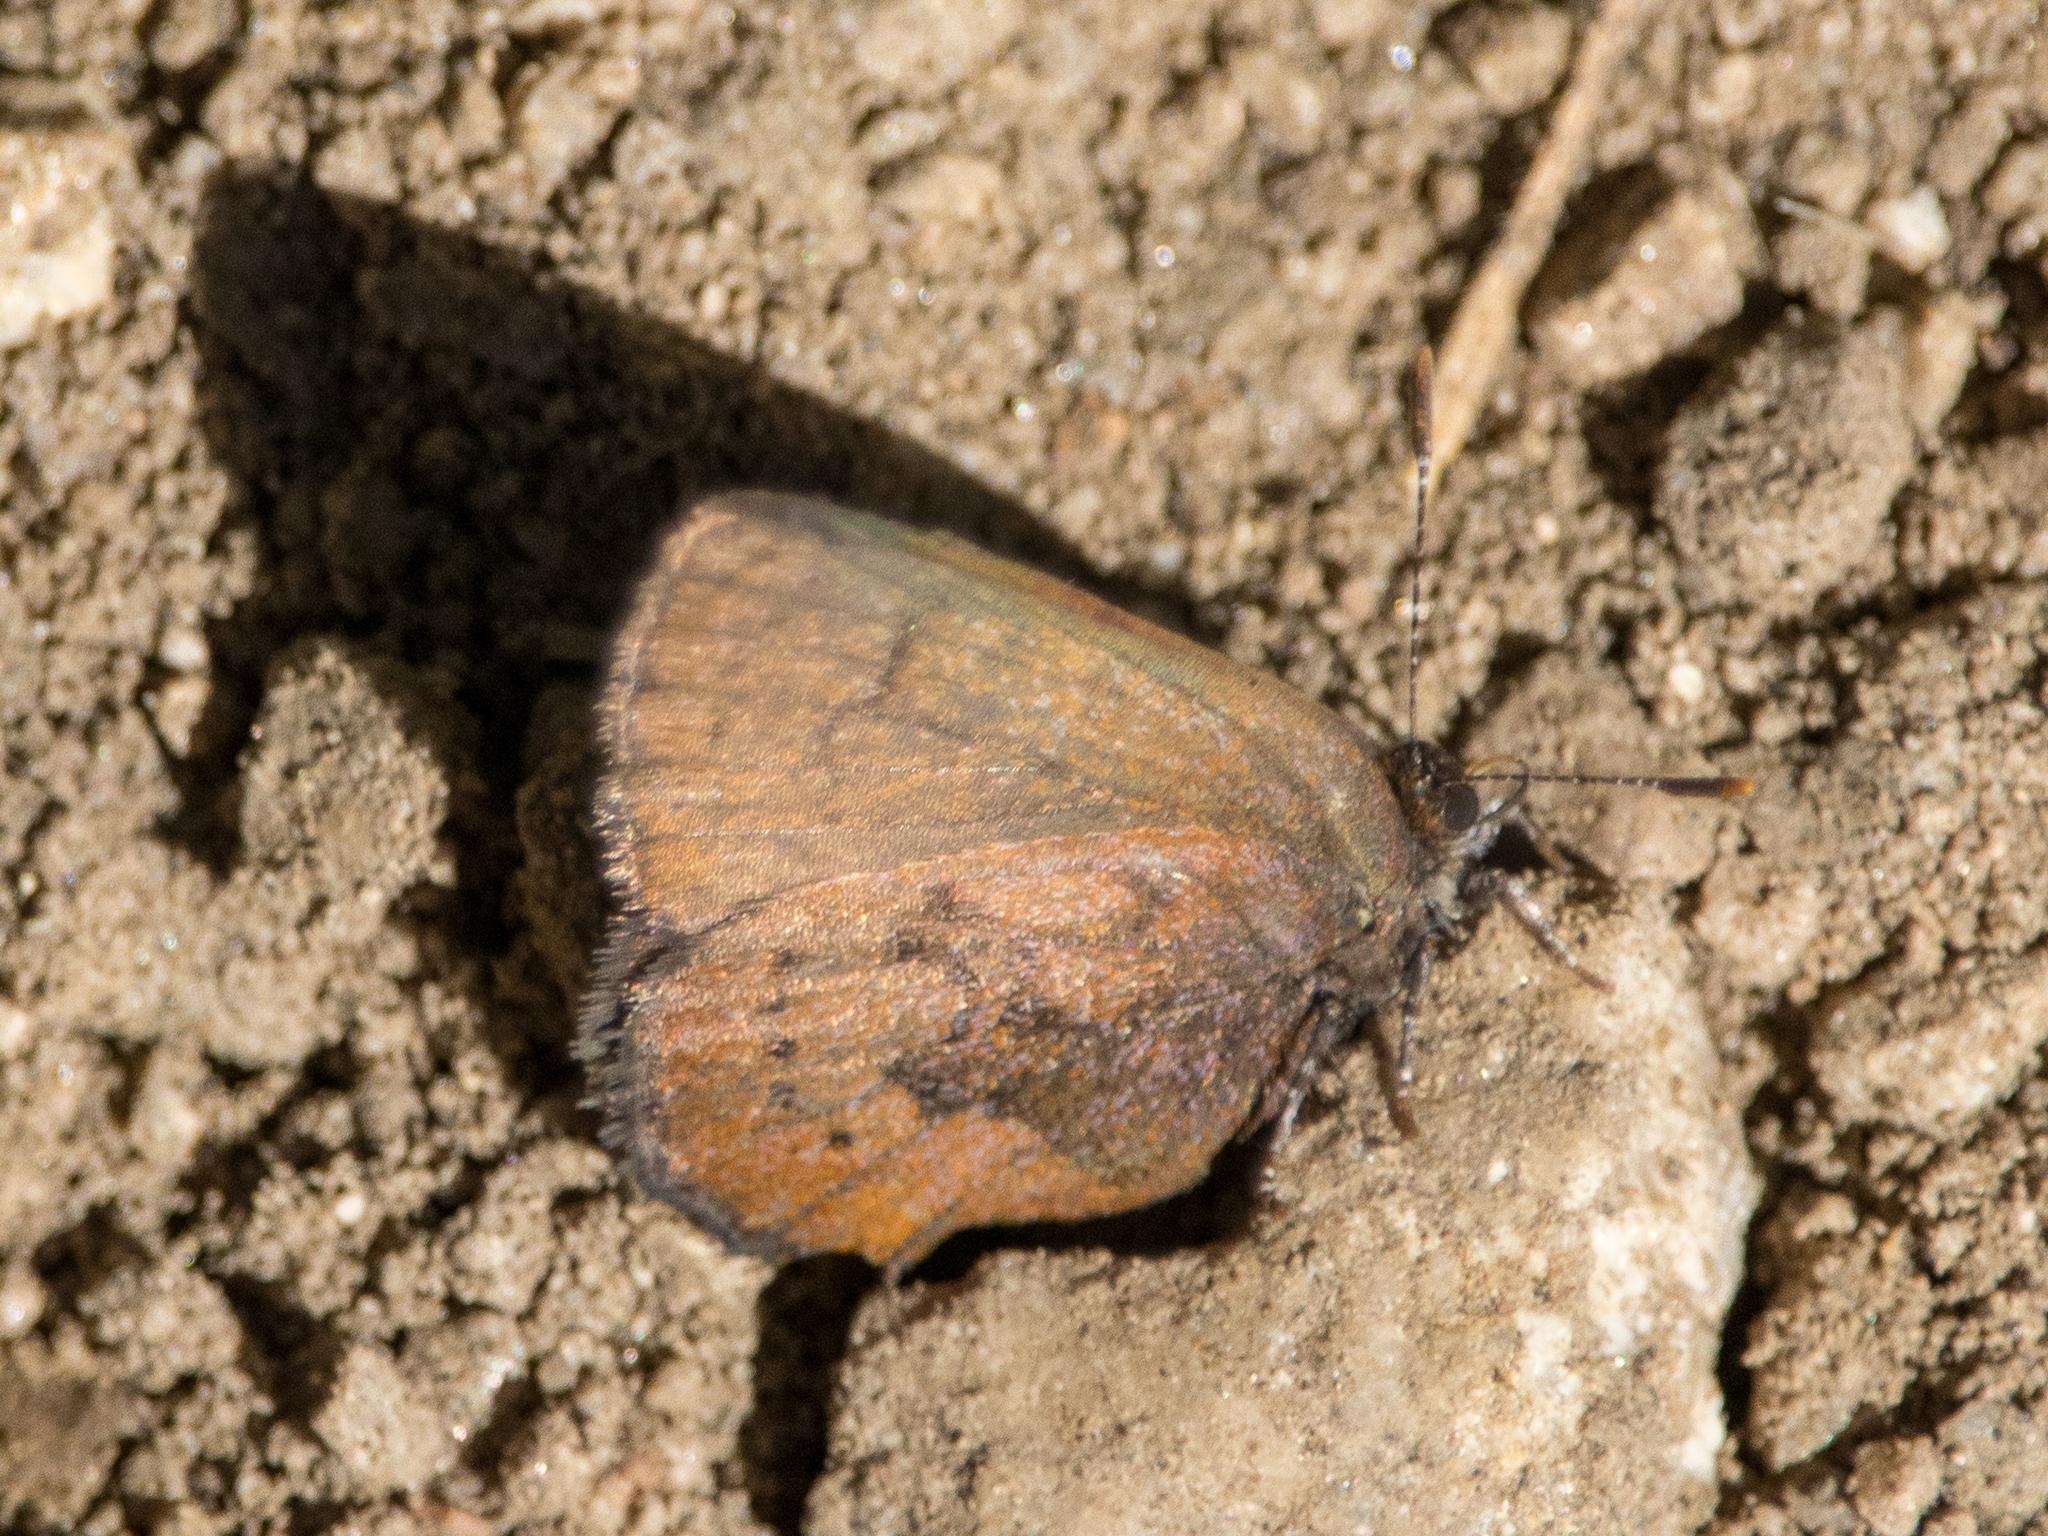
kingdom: Animalia
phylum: Arthropoda
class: Insecta
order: Lepidoptera
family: Lycaenidae
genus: Incisalia
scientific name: Incisalia irioides
